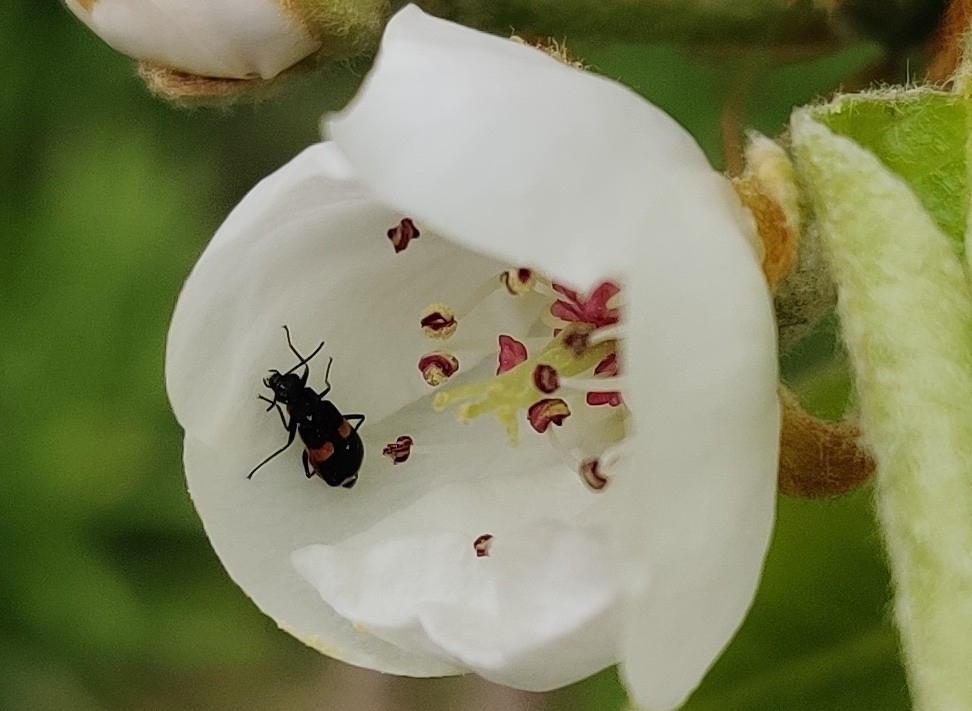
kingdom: Animalia
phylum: Arthropoda
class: Insecta
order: Coleoptera
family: Melyridae
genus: Anthocomus
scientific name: Anthocomus fasciatus
